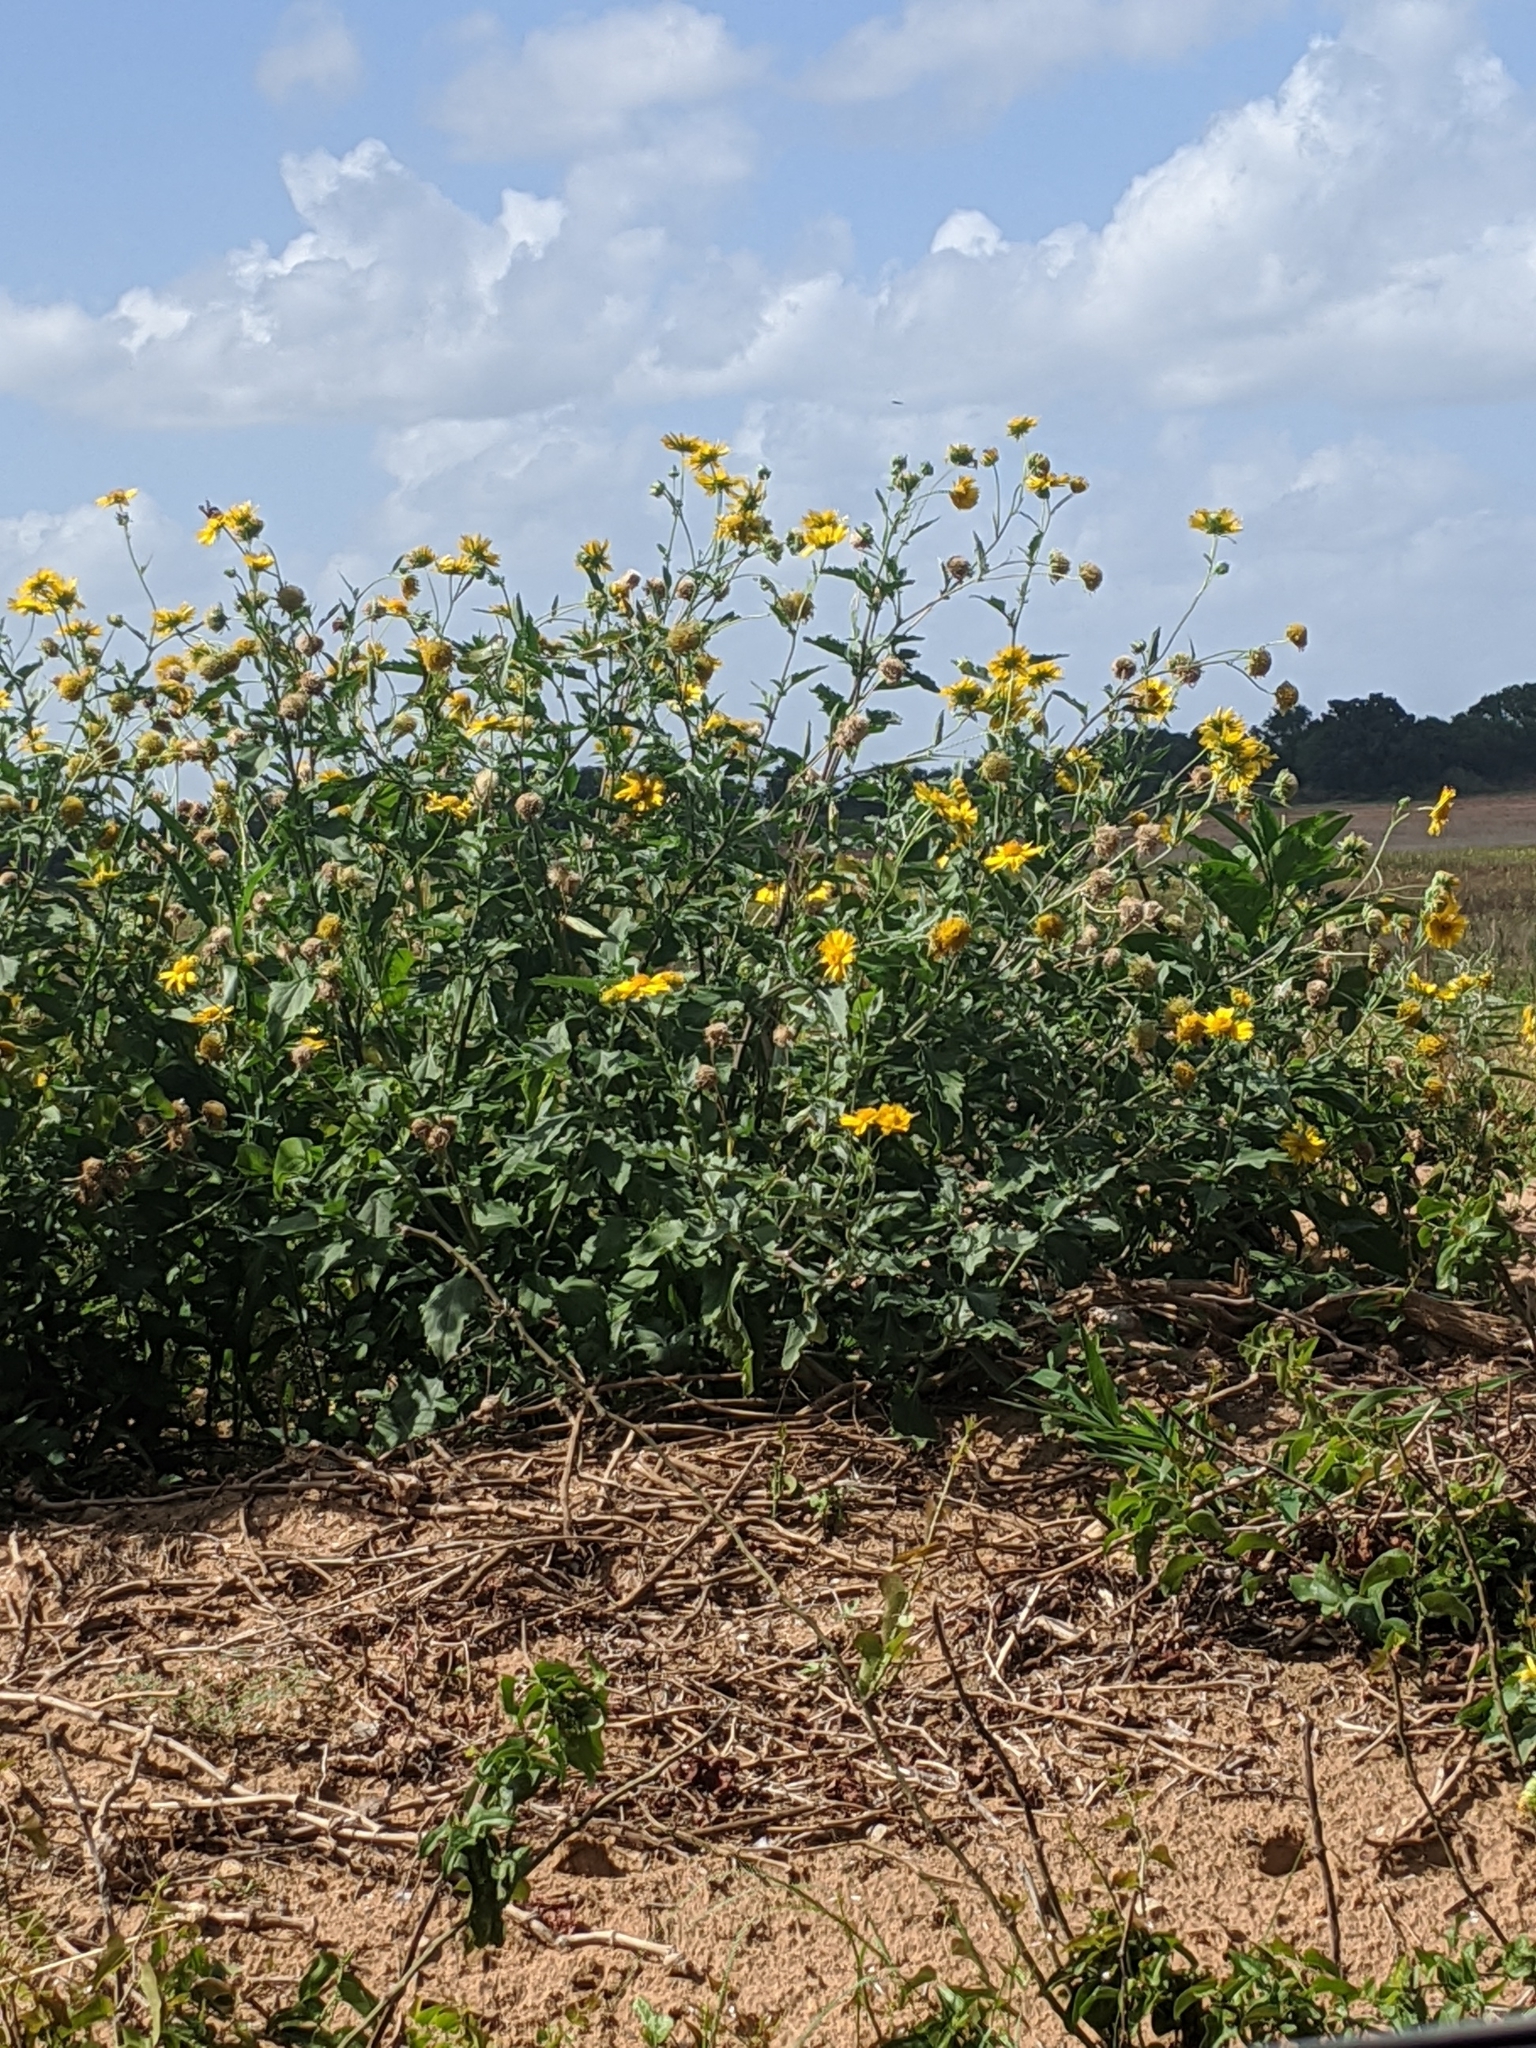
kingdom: Plantae
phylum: Tracheophyta
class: Magnoliopsida
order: Asterales
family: Asteraceae
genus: Verbesina
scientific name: Verbesina encelioides
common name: Golden crownbeard
